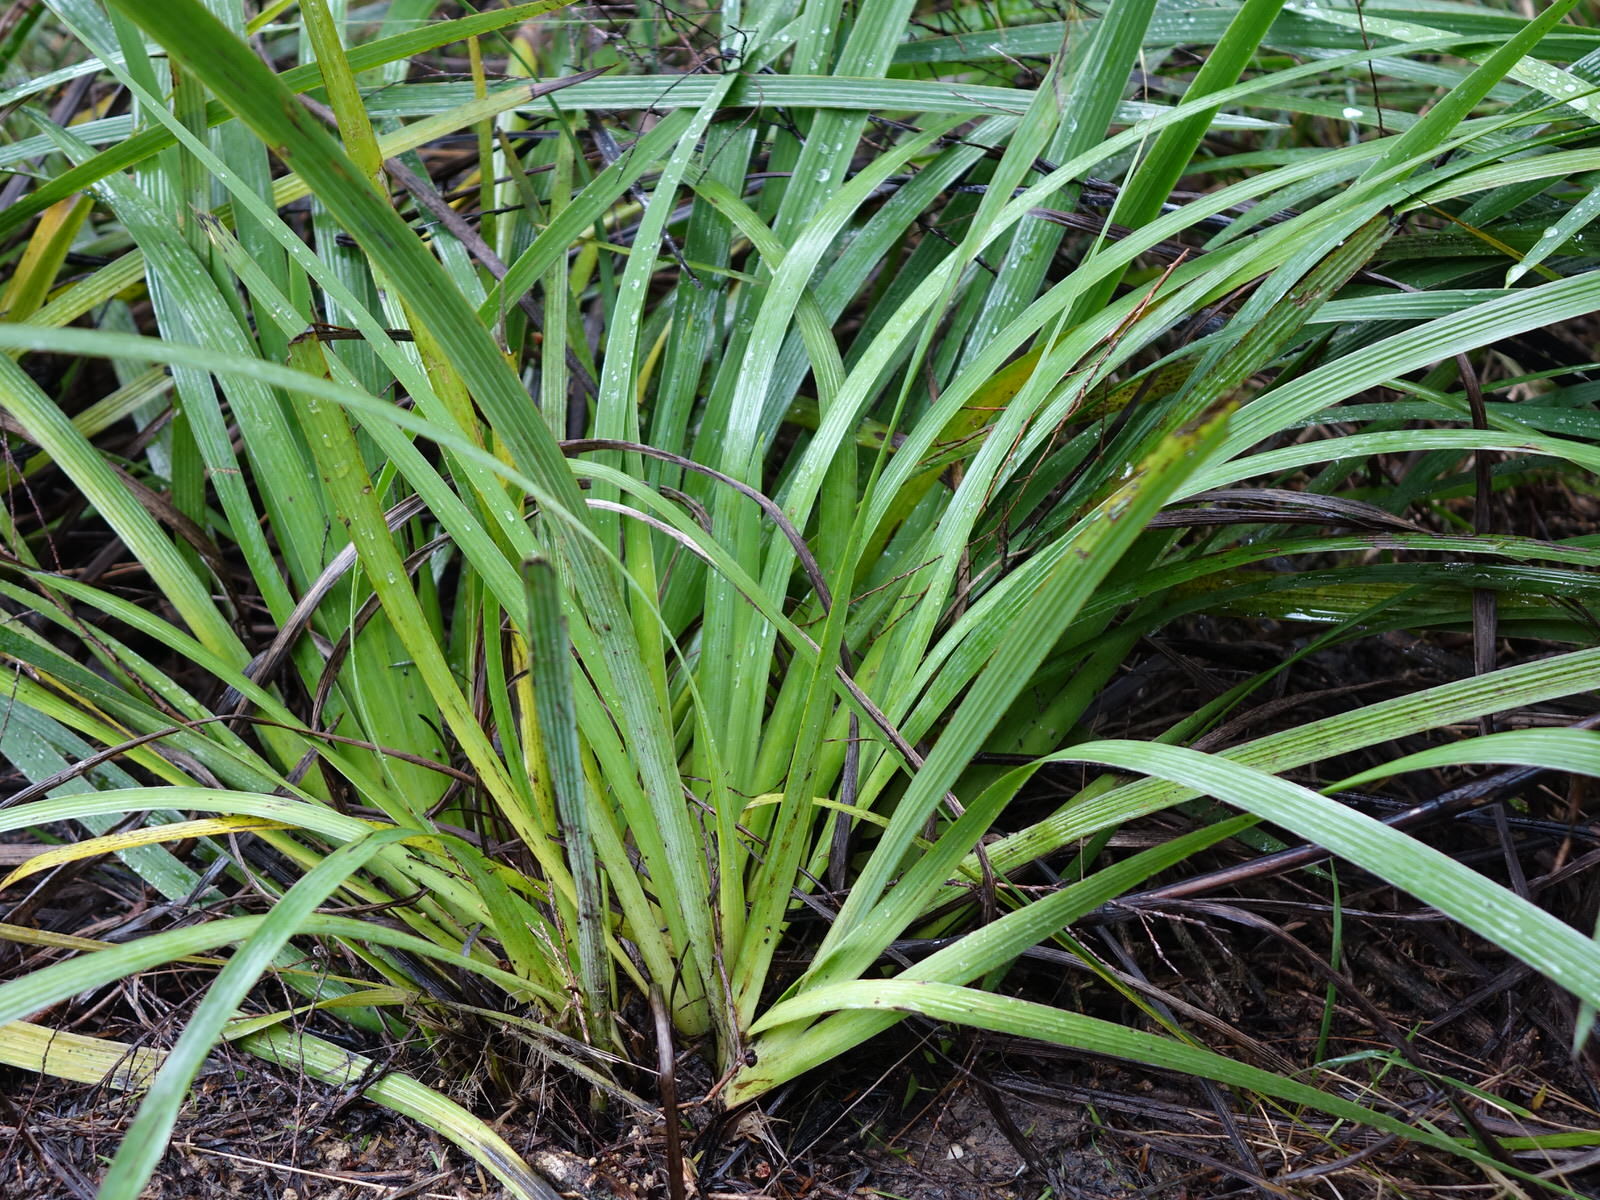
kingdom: Plantae
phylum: Tracheophyta
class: Liliopsida
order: Asparagales
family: Iridaceae
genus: Aristea
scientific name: Aristea ecklonii
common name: Blue corn-lily
